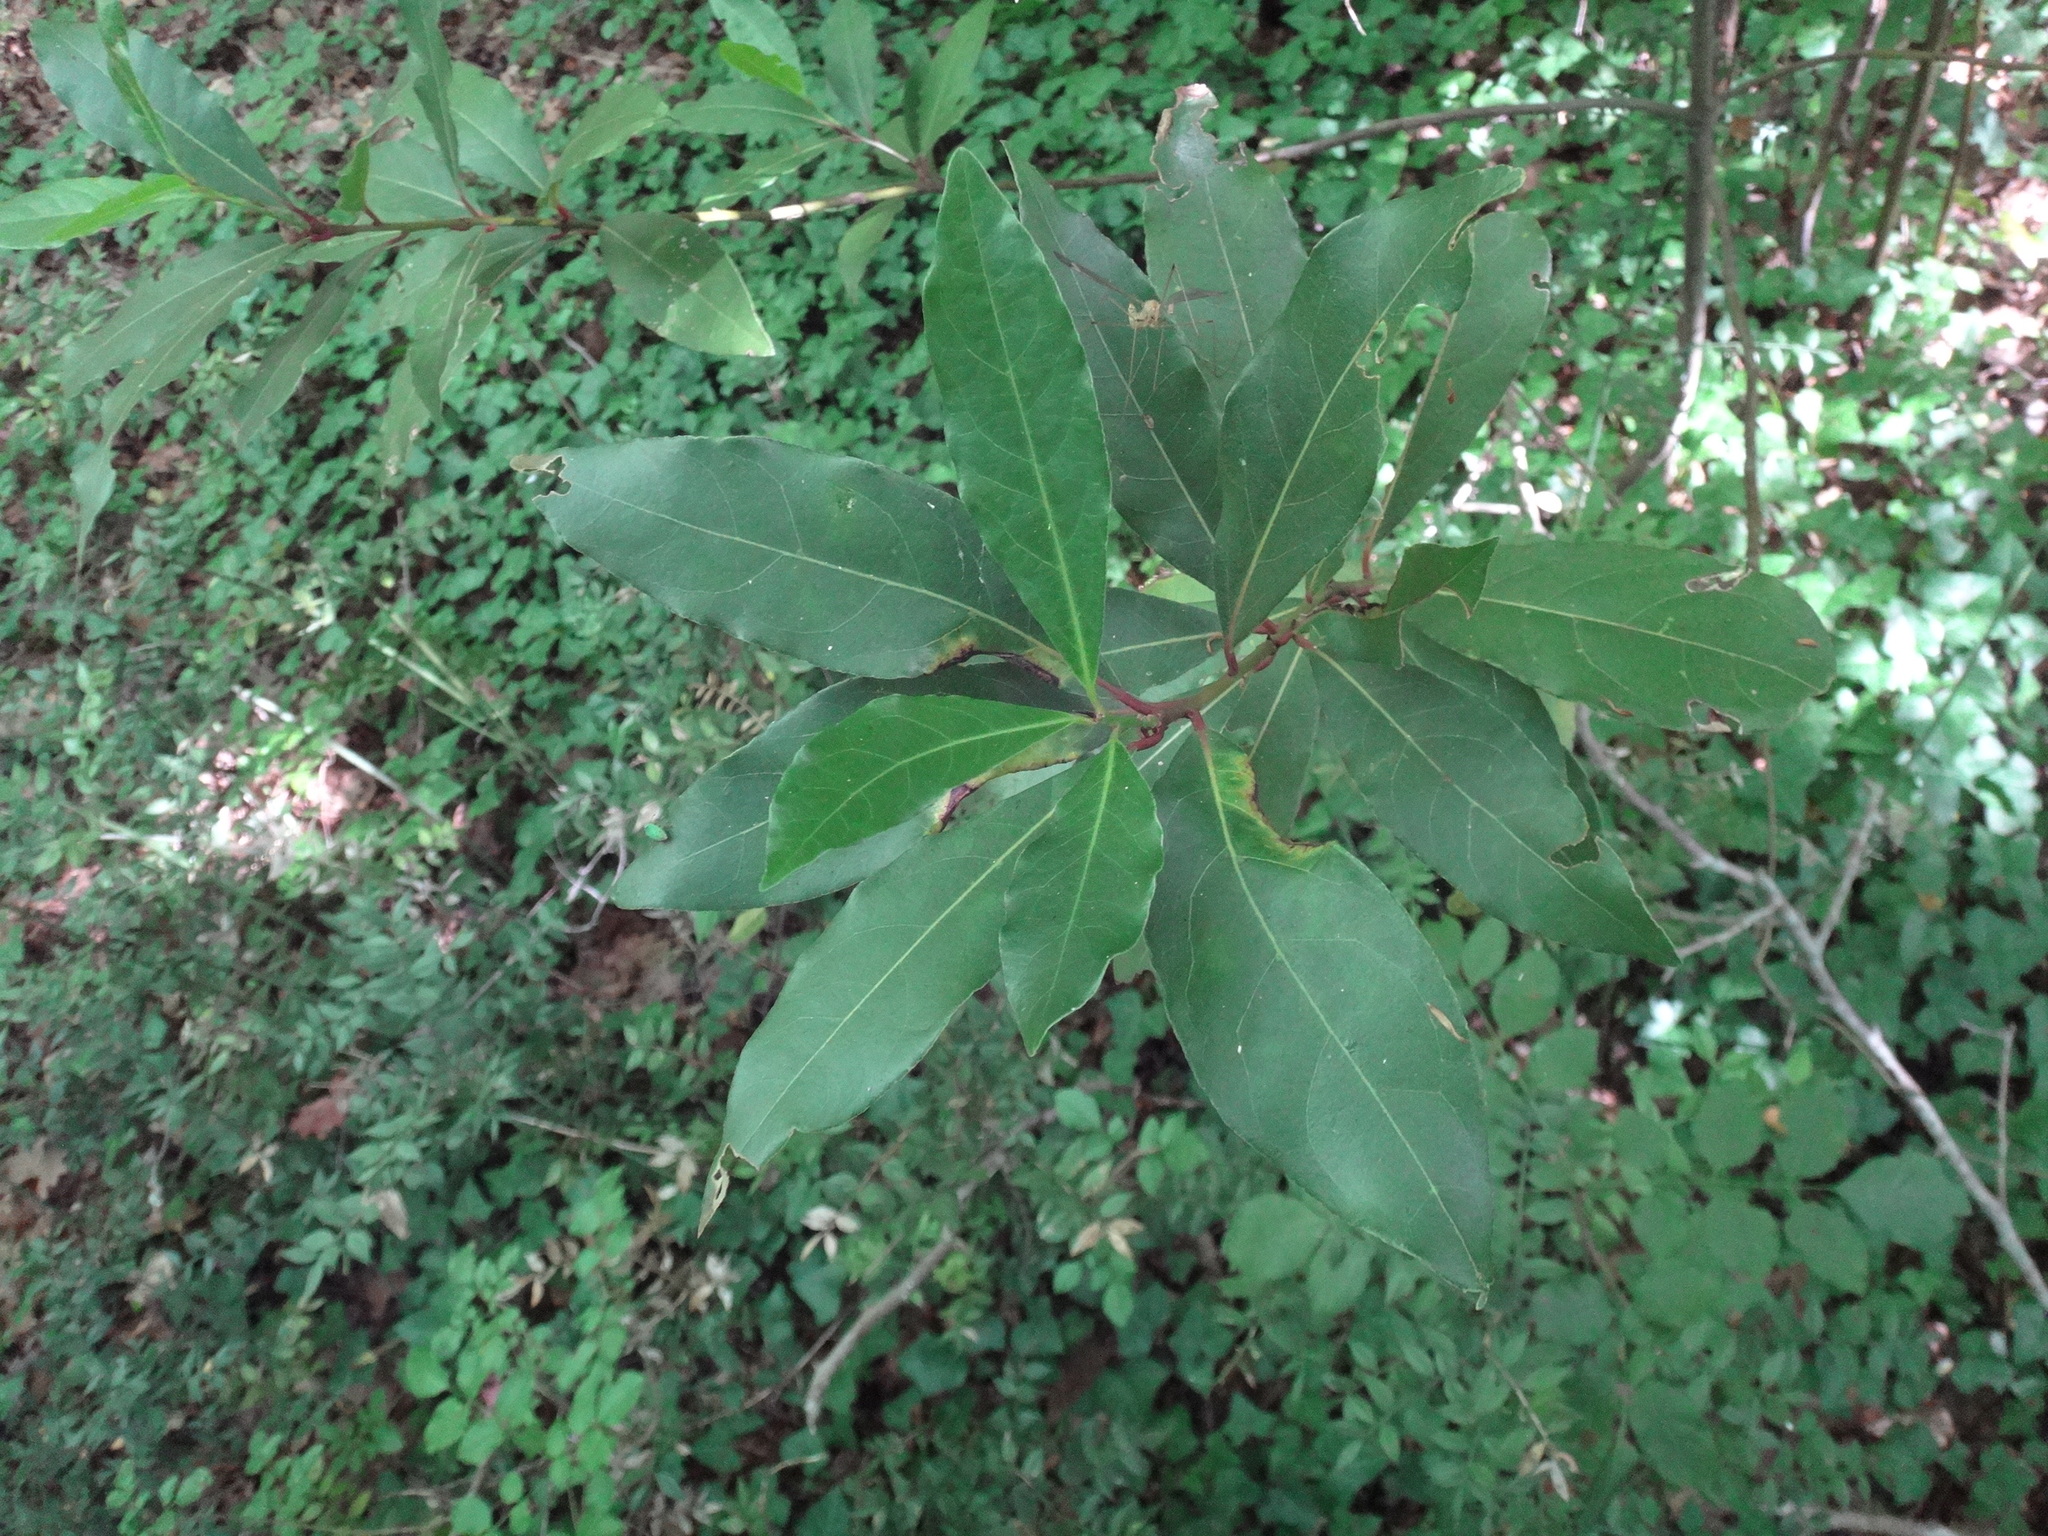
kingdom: Plantae
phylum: Tracheophyta
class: Magnoliopsida
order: Laurales
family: Lauraceae
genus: Laurus
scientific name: Laurus nobilis
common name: Bay
